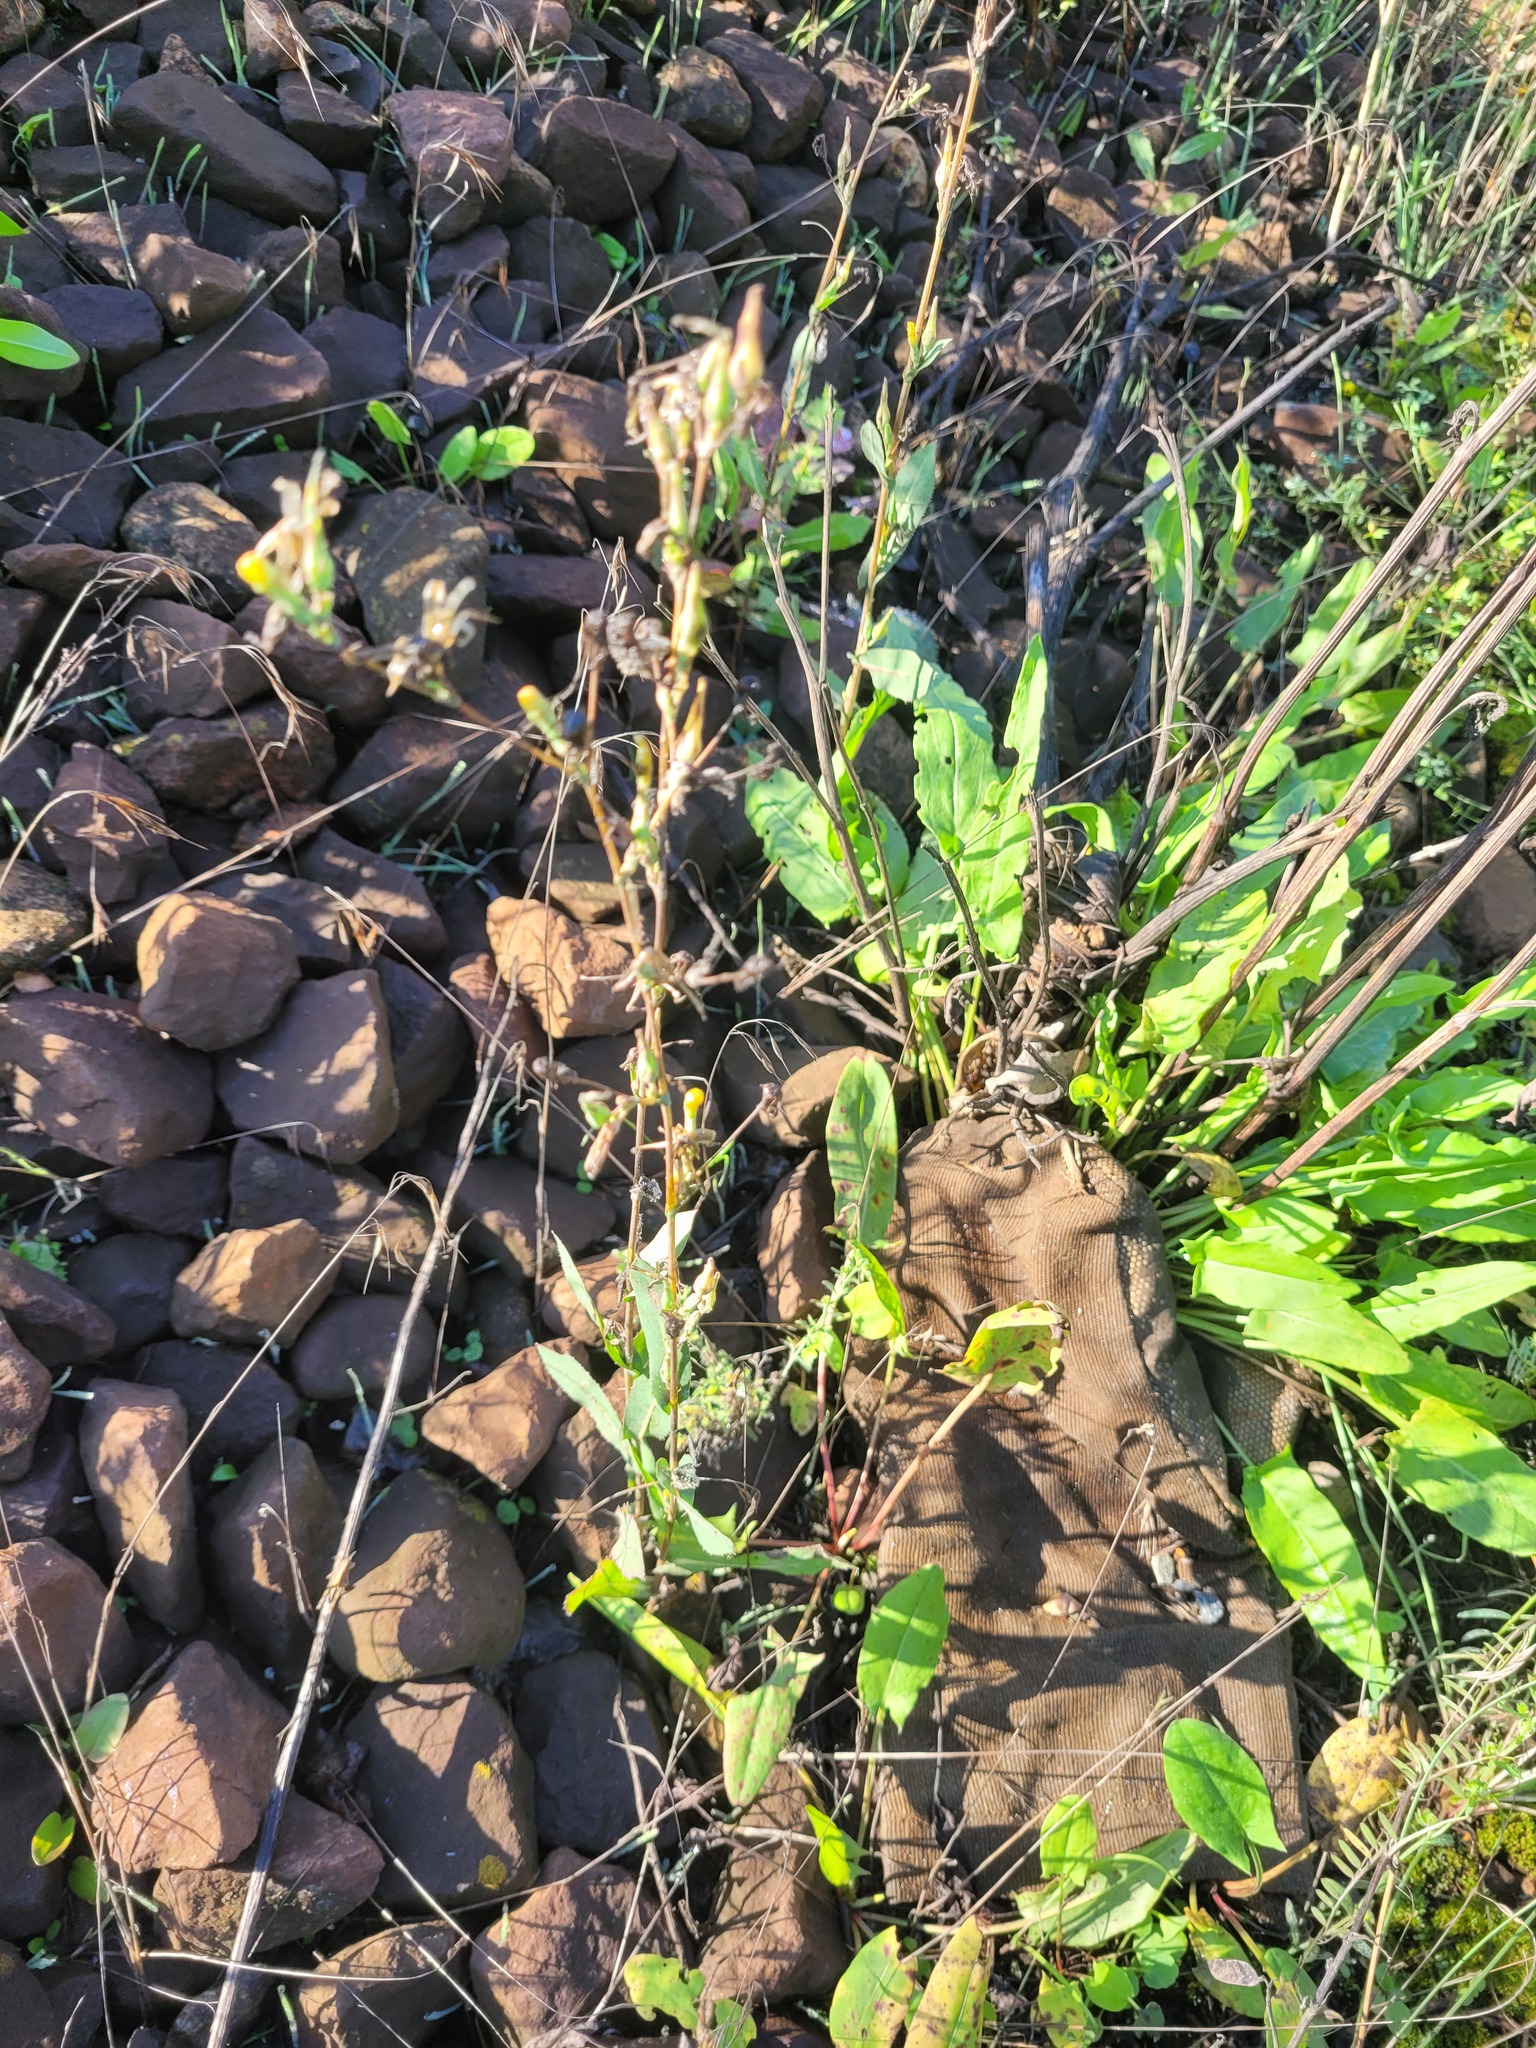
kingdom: Plantae
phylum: Tracheophyta
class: Magnoliopsida
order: Asterales
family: Asteraceae
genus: Lactuca
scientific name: Lactuca serriola
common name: Prickly lettuce
